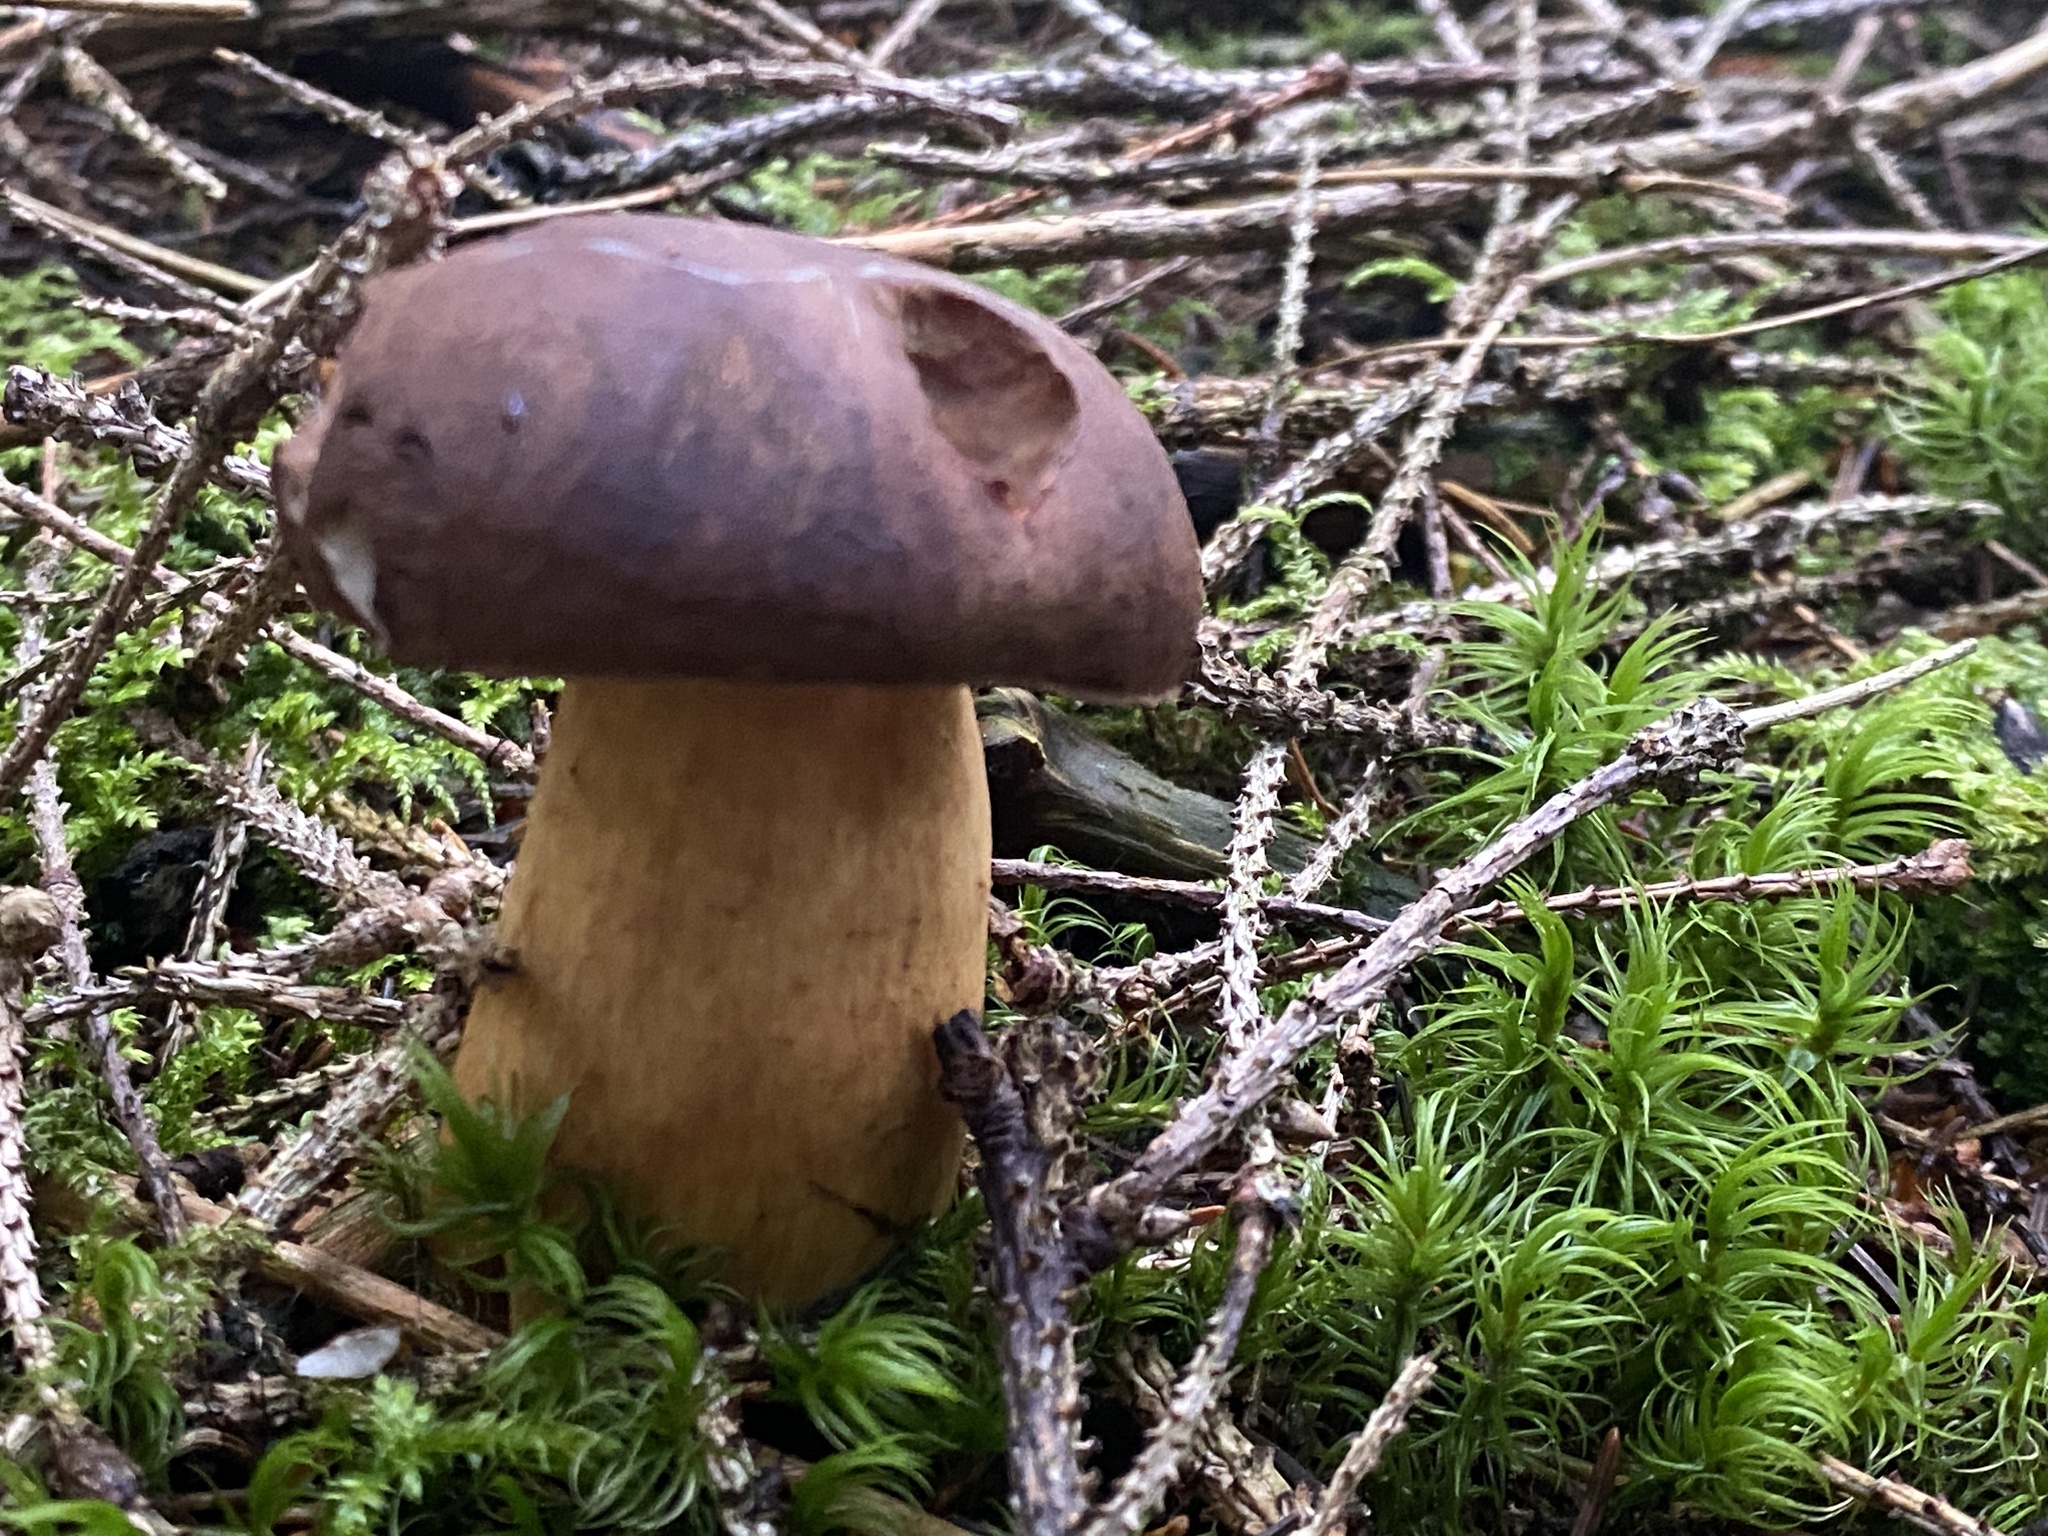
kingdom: Fungi
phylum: Basidiomycota
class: Agaricomycetes
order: Boletales
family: Boletaceae
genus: Imleria
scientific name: Imleria badia
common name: Bay bolete
